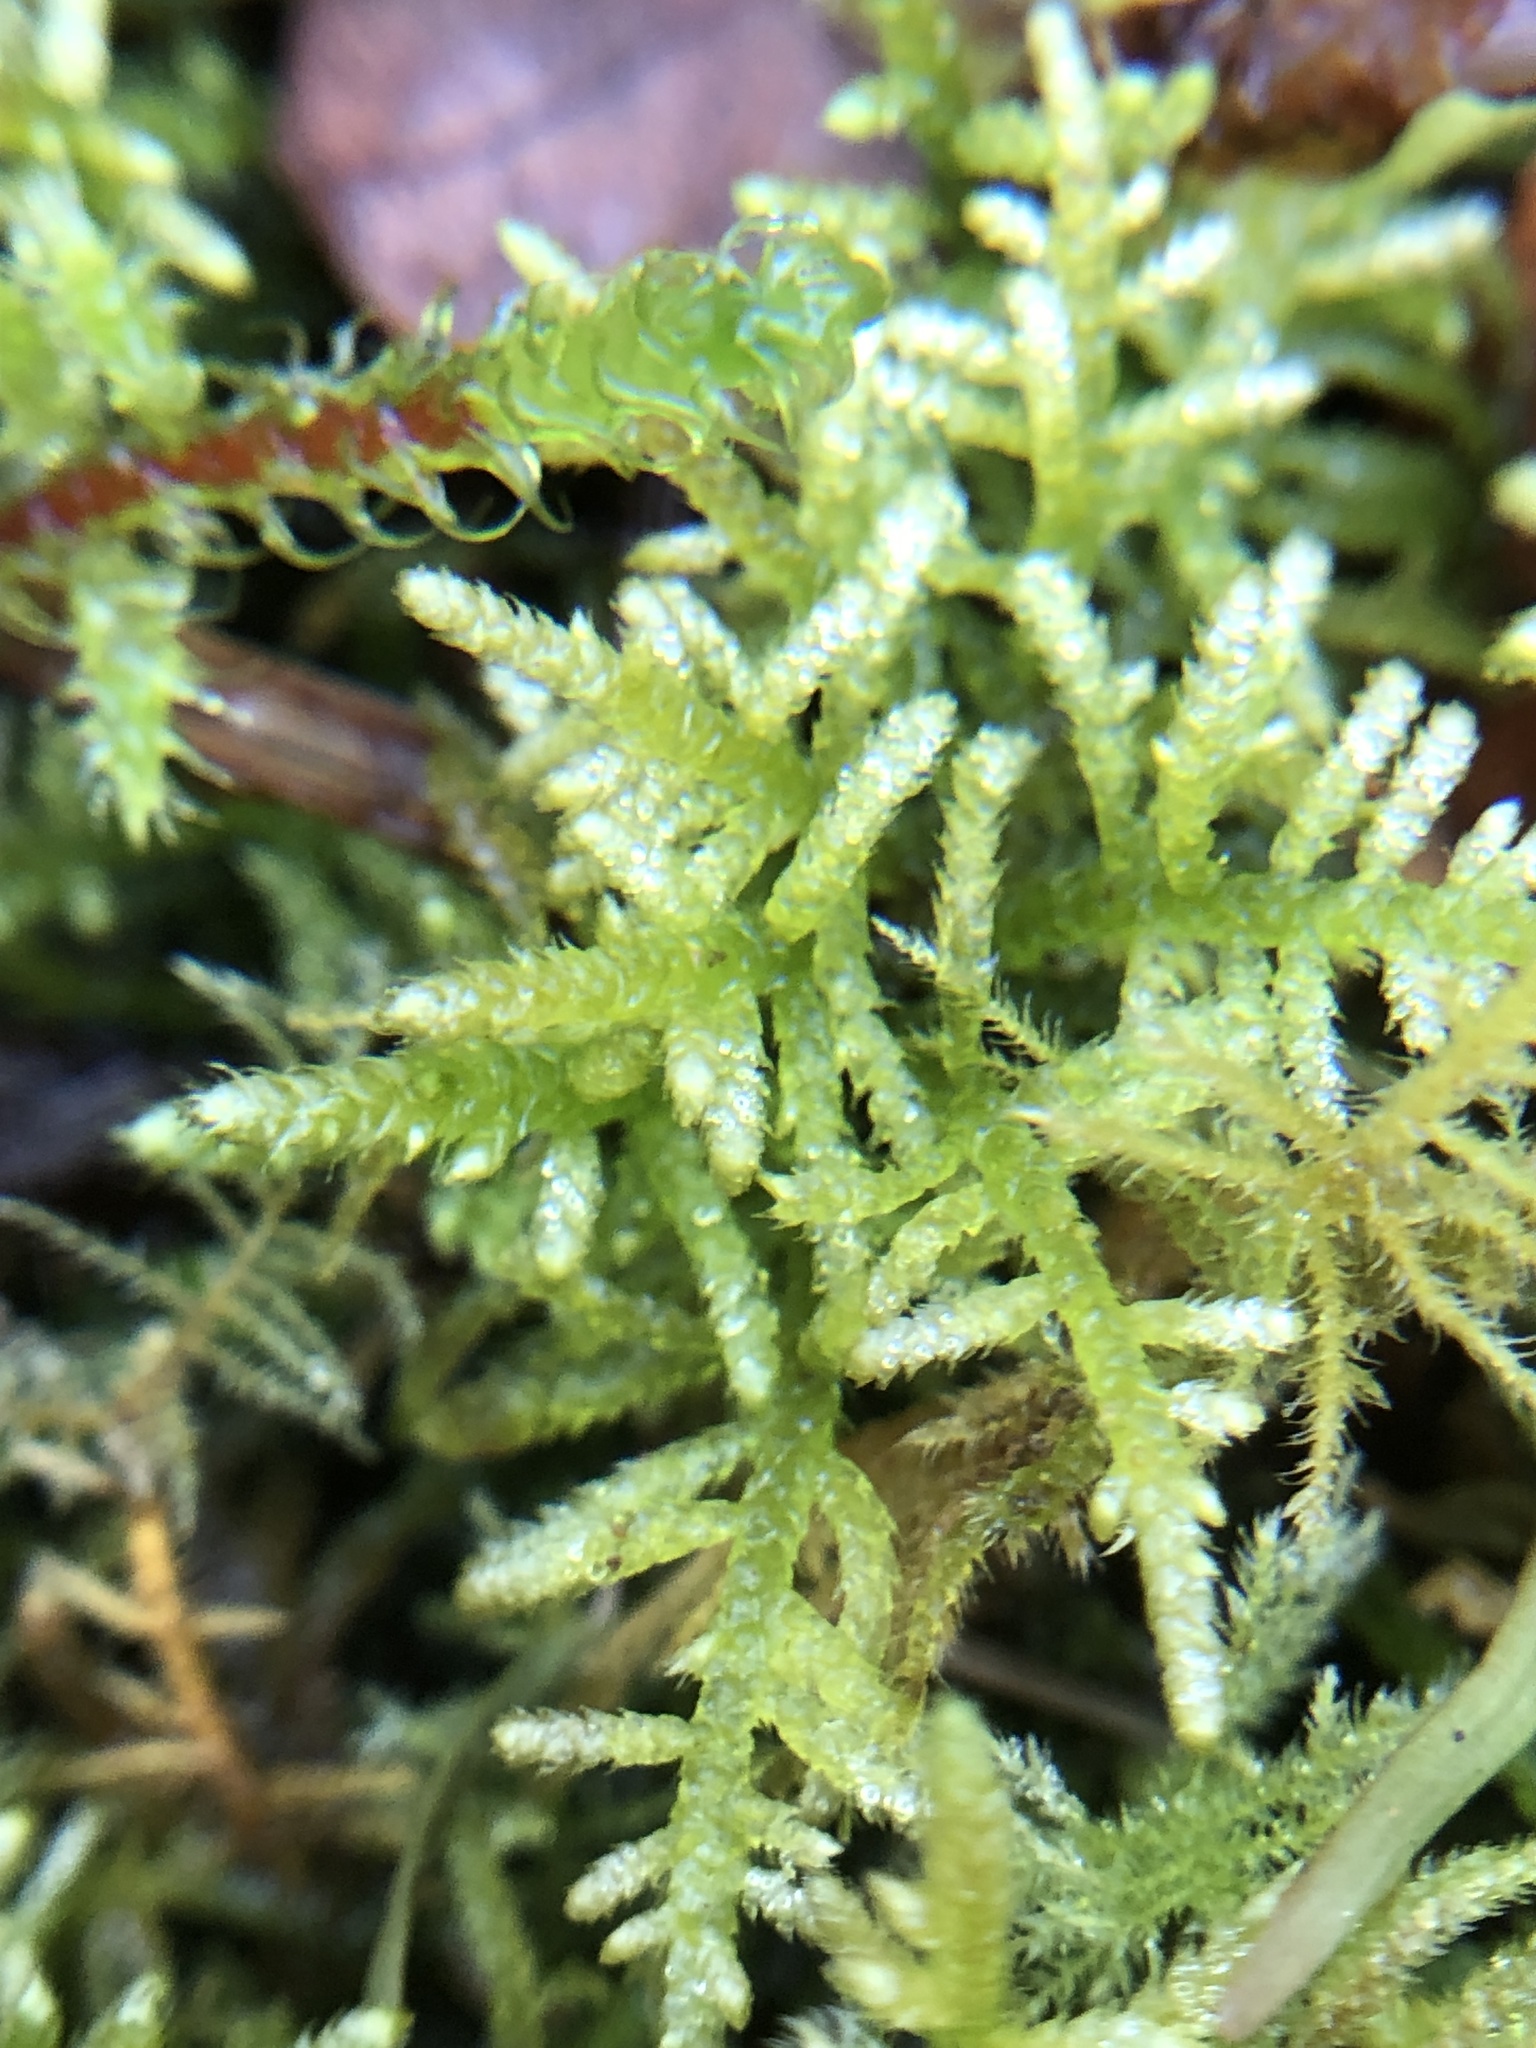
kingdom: Plantae
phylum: Bryophyta
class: Bryopsida
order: Hypnales
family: Myuriaceae
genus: Hyocomium
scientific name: Hyocomium armoricum
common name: Flagellate feather-moss
